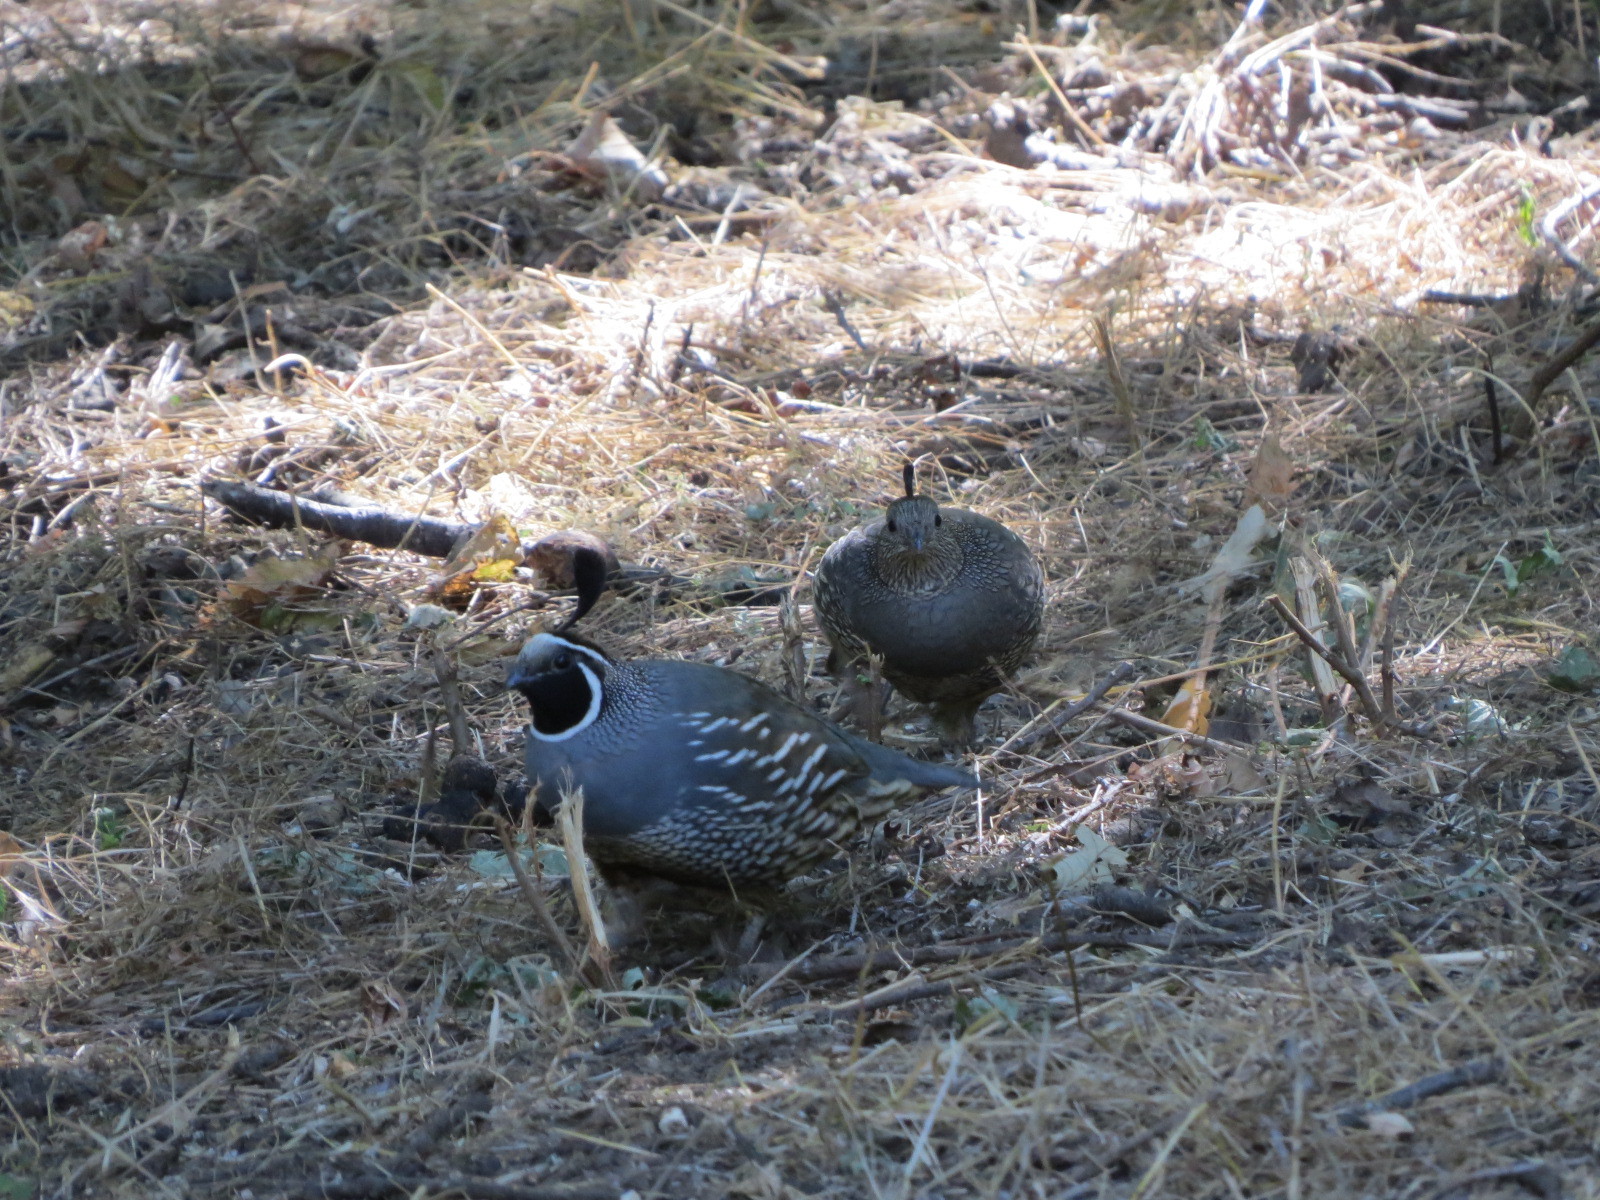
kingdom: Animalia
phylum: Chordata
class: Aves
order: Galliformes
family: Odontophoridae
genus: Callipepla
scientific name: Callipepla californica
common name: California quail
